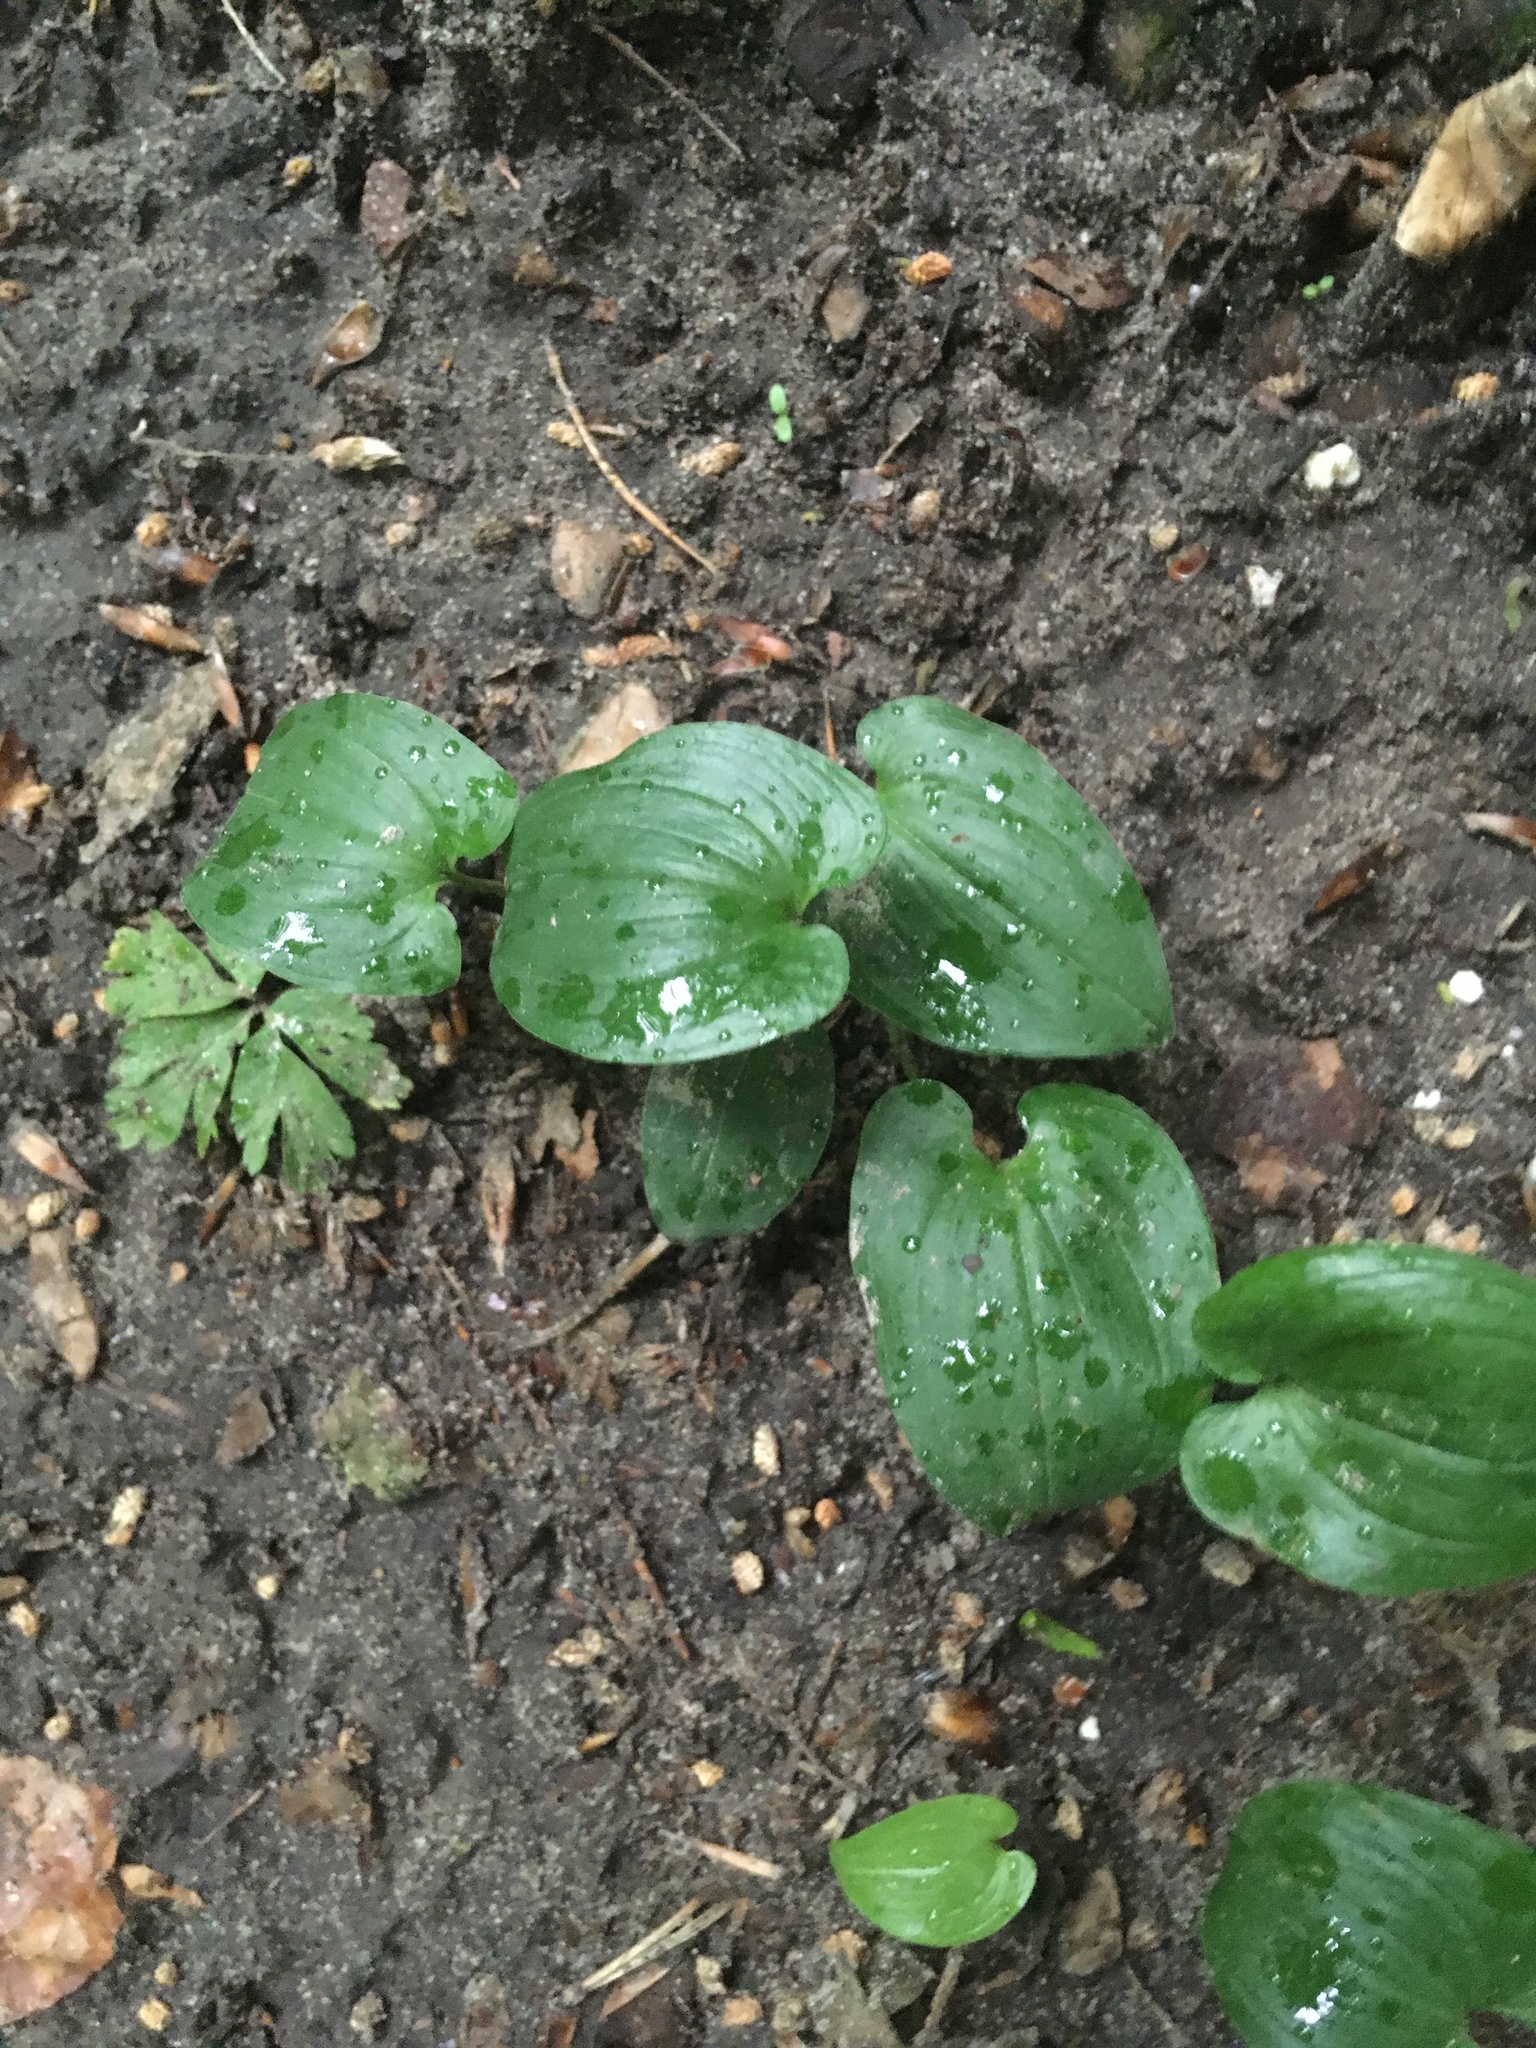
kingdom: Plantae
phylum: Tracheophyta
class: Liliopsida
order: Asparagales
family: Asparagaceae
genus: Maianthemum
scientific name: Maianthemum bifolium
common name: May lily
